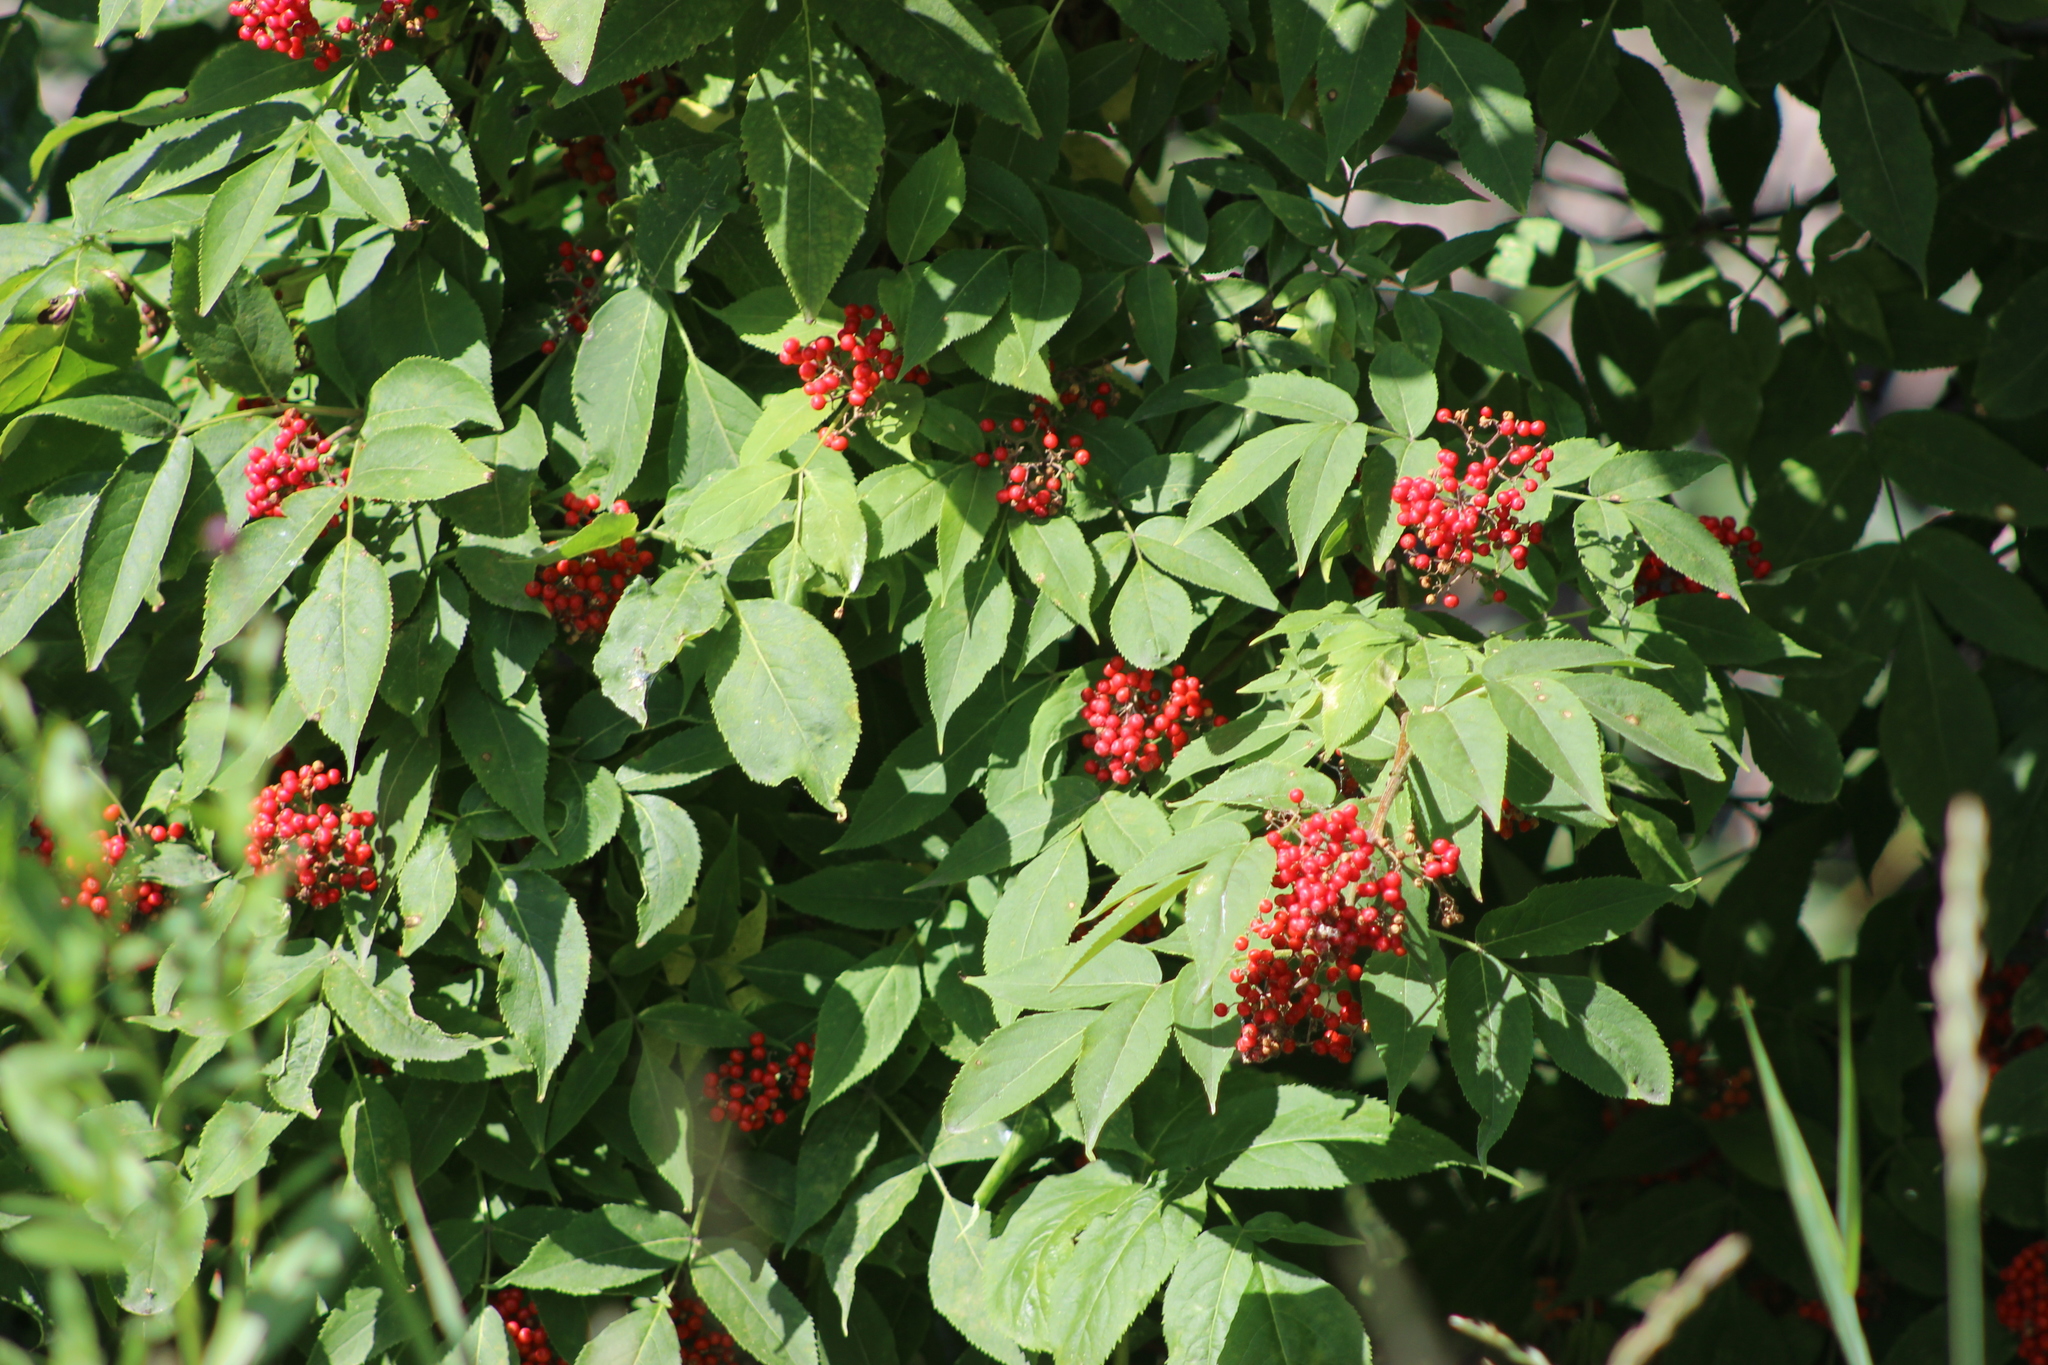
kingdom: Plantae
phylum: Tracheophyta
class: Magnoliopsida
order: Dipsacales
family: Viburnaceae
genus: Sambucus
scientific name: Sambucus sibirica
